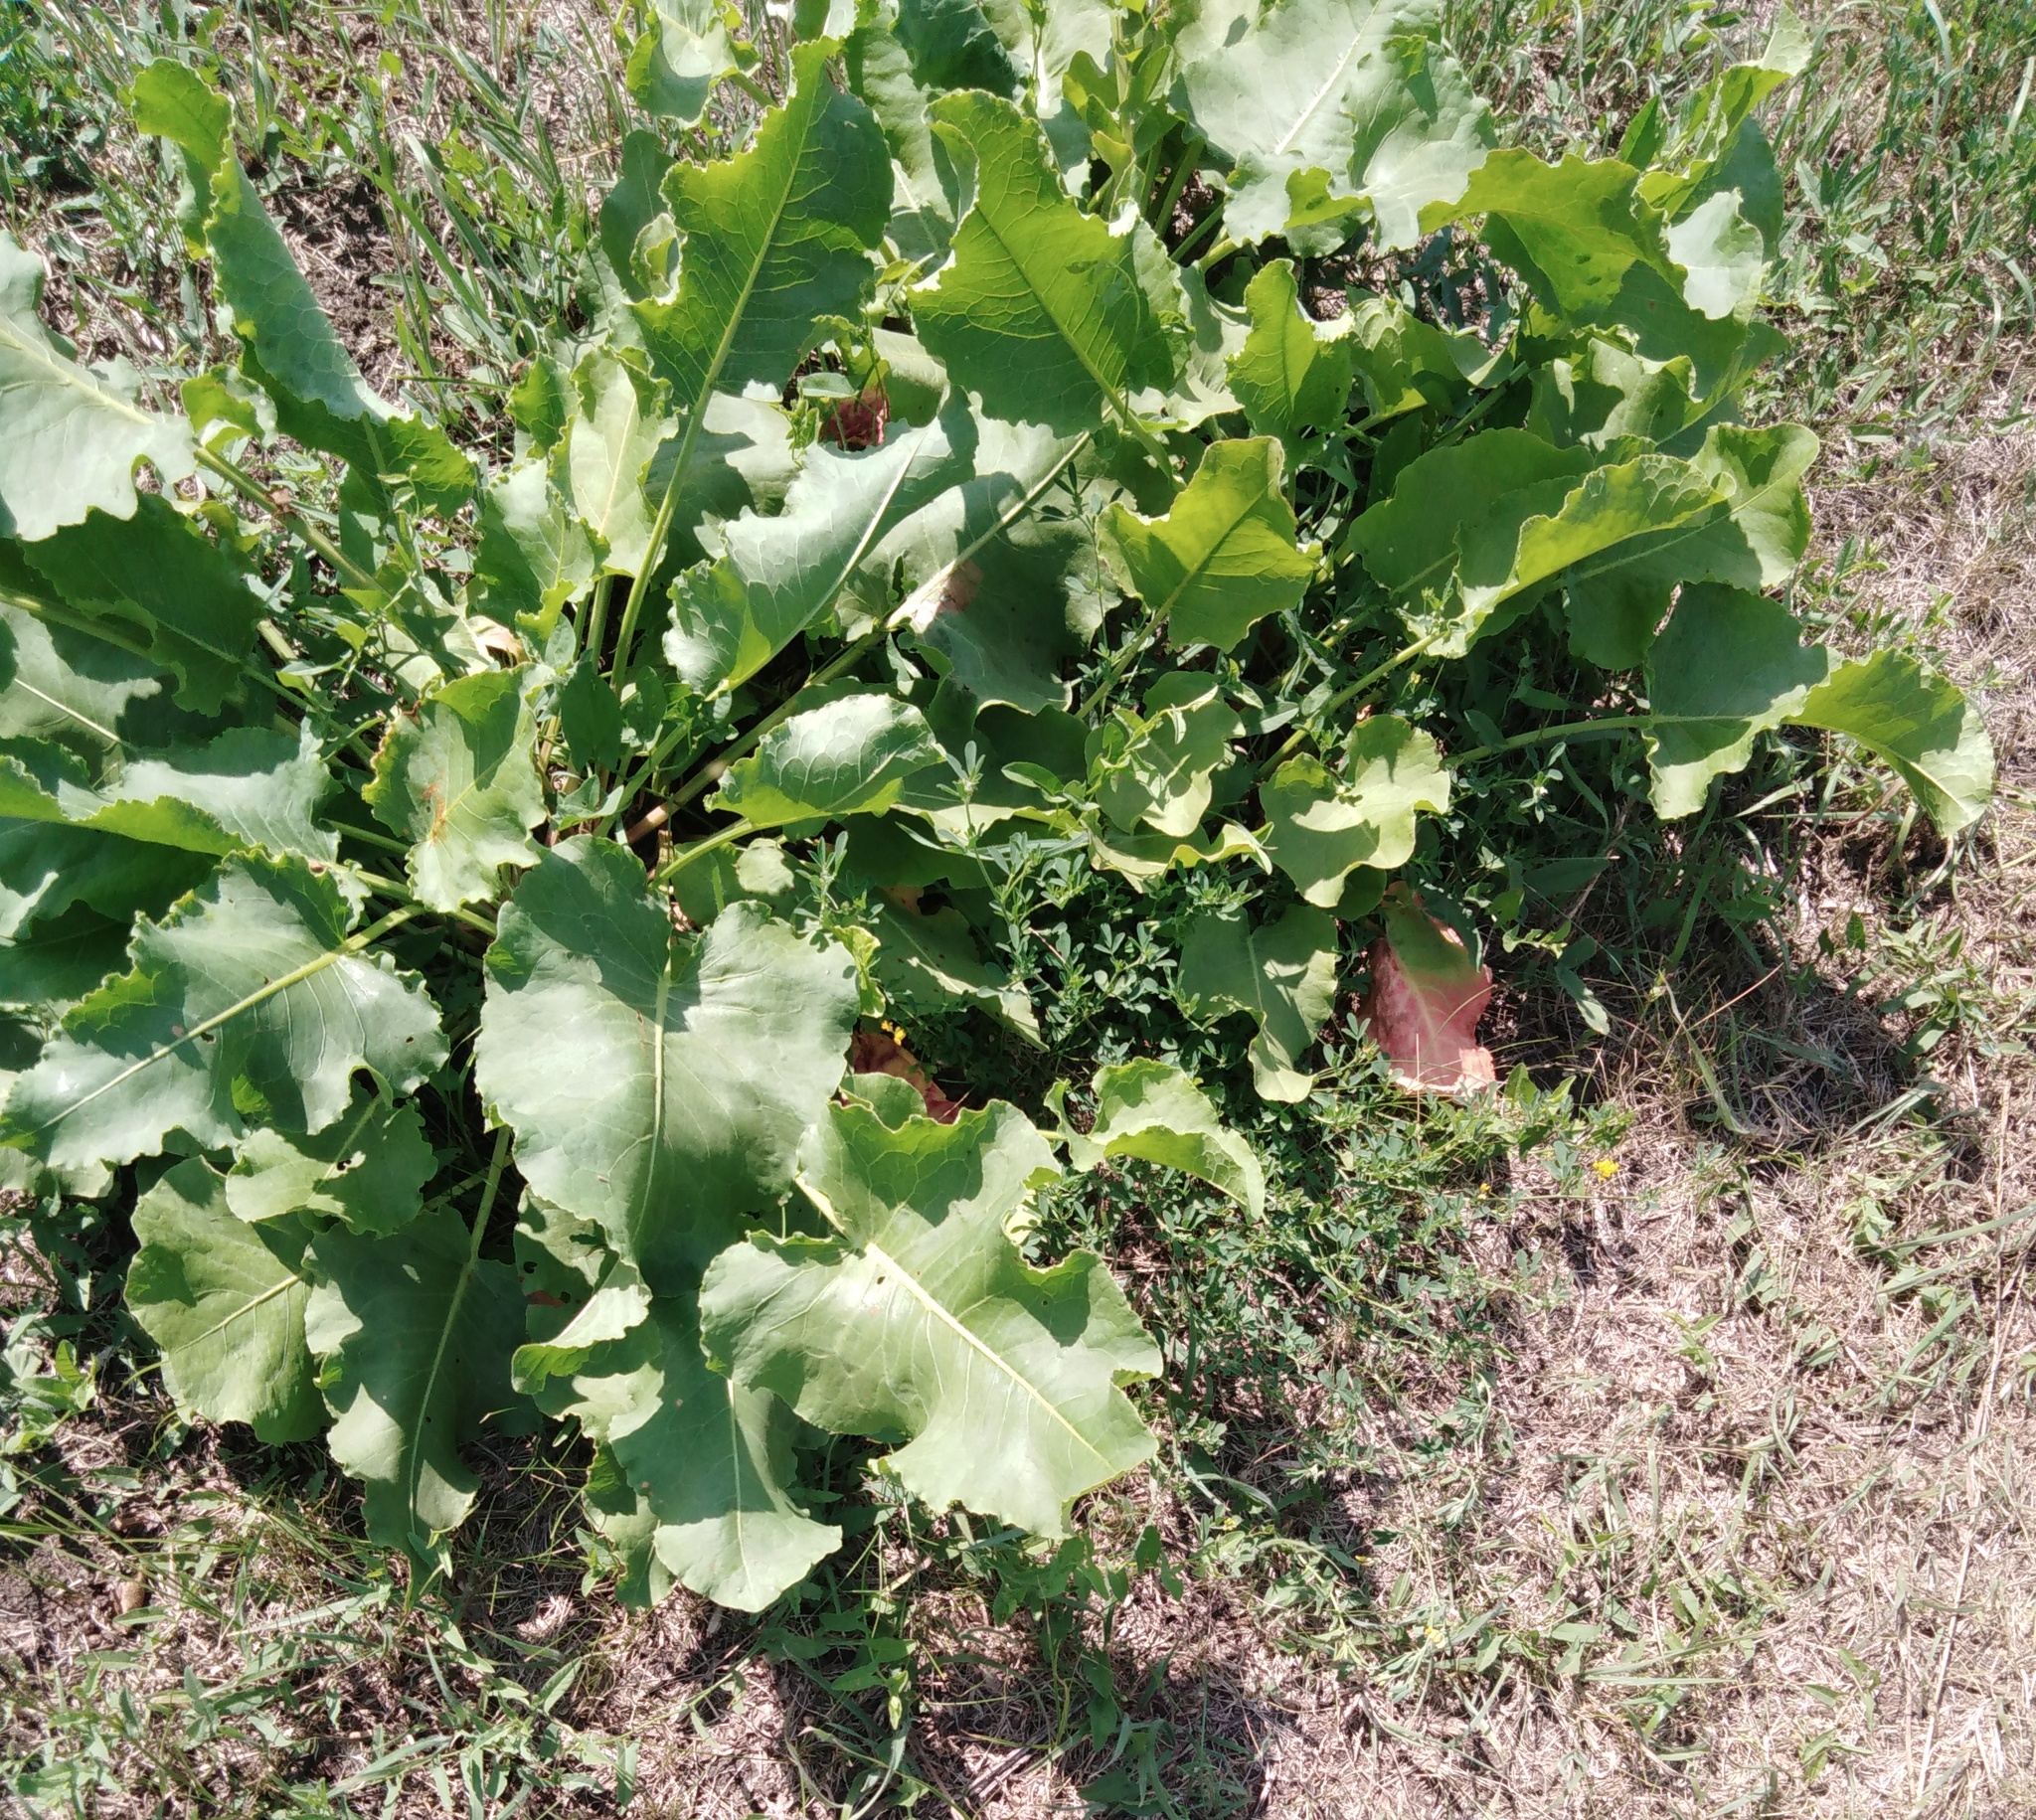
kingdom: Plantae
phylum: Tracheophyta
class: Magnoliopsida
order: Caryophyllales
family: Polygonaceae
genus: Rumex
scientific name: Rumex confertus
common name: Russian dock
